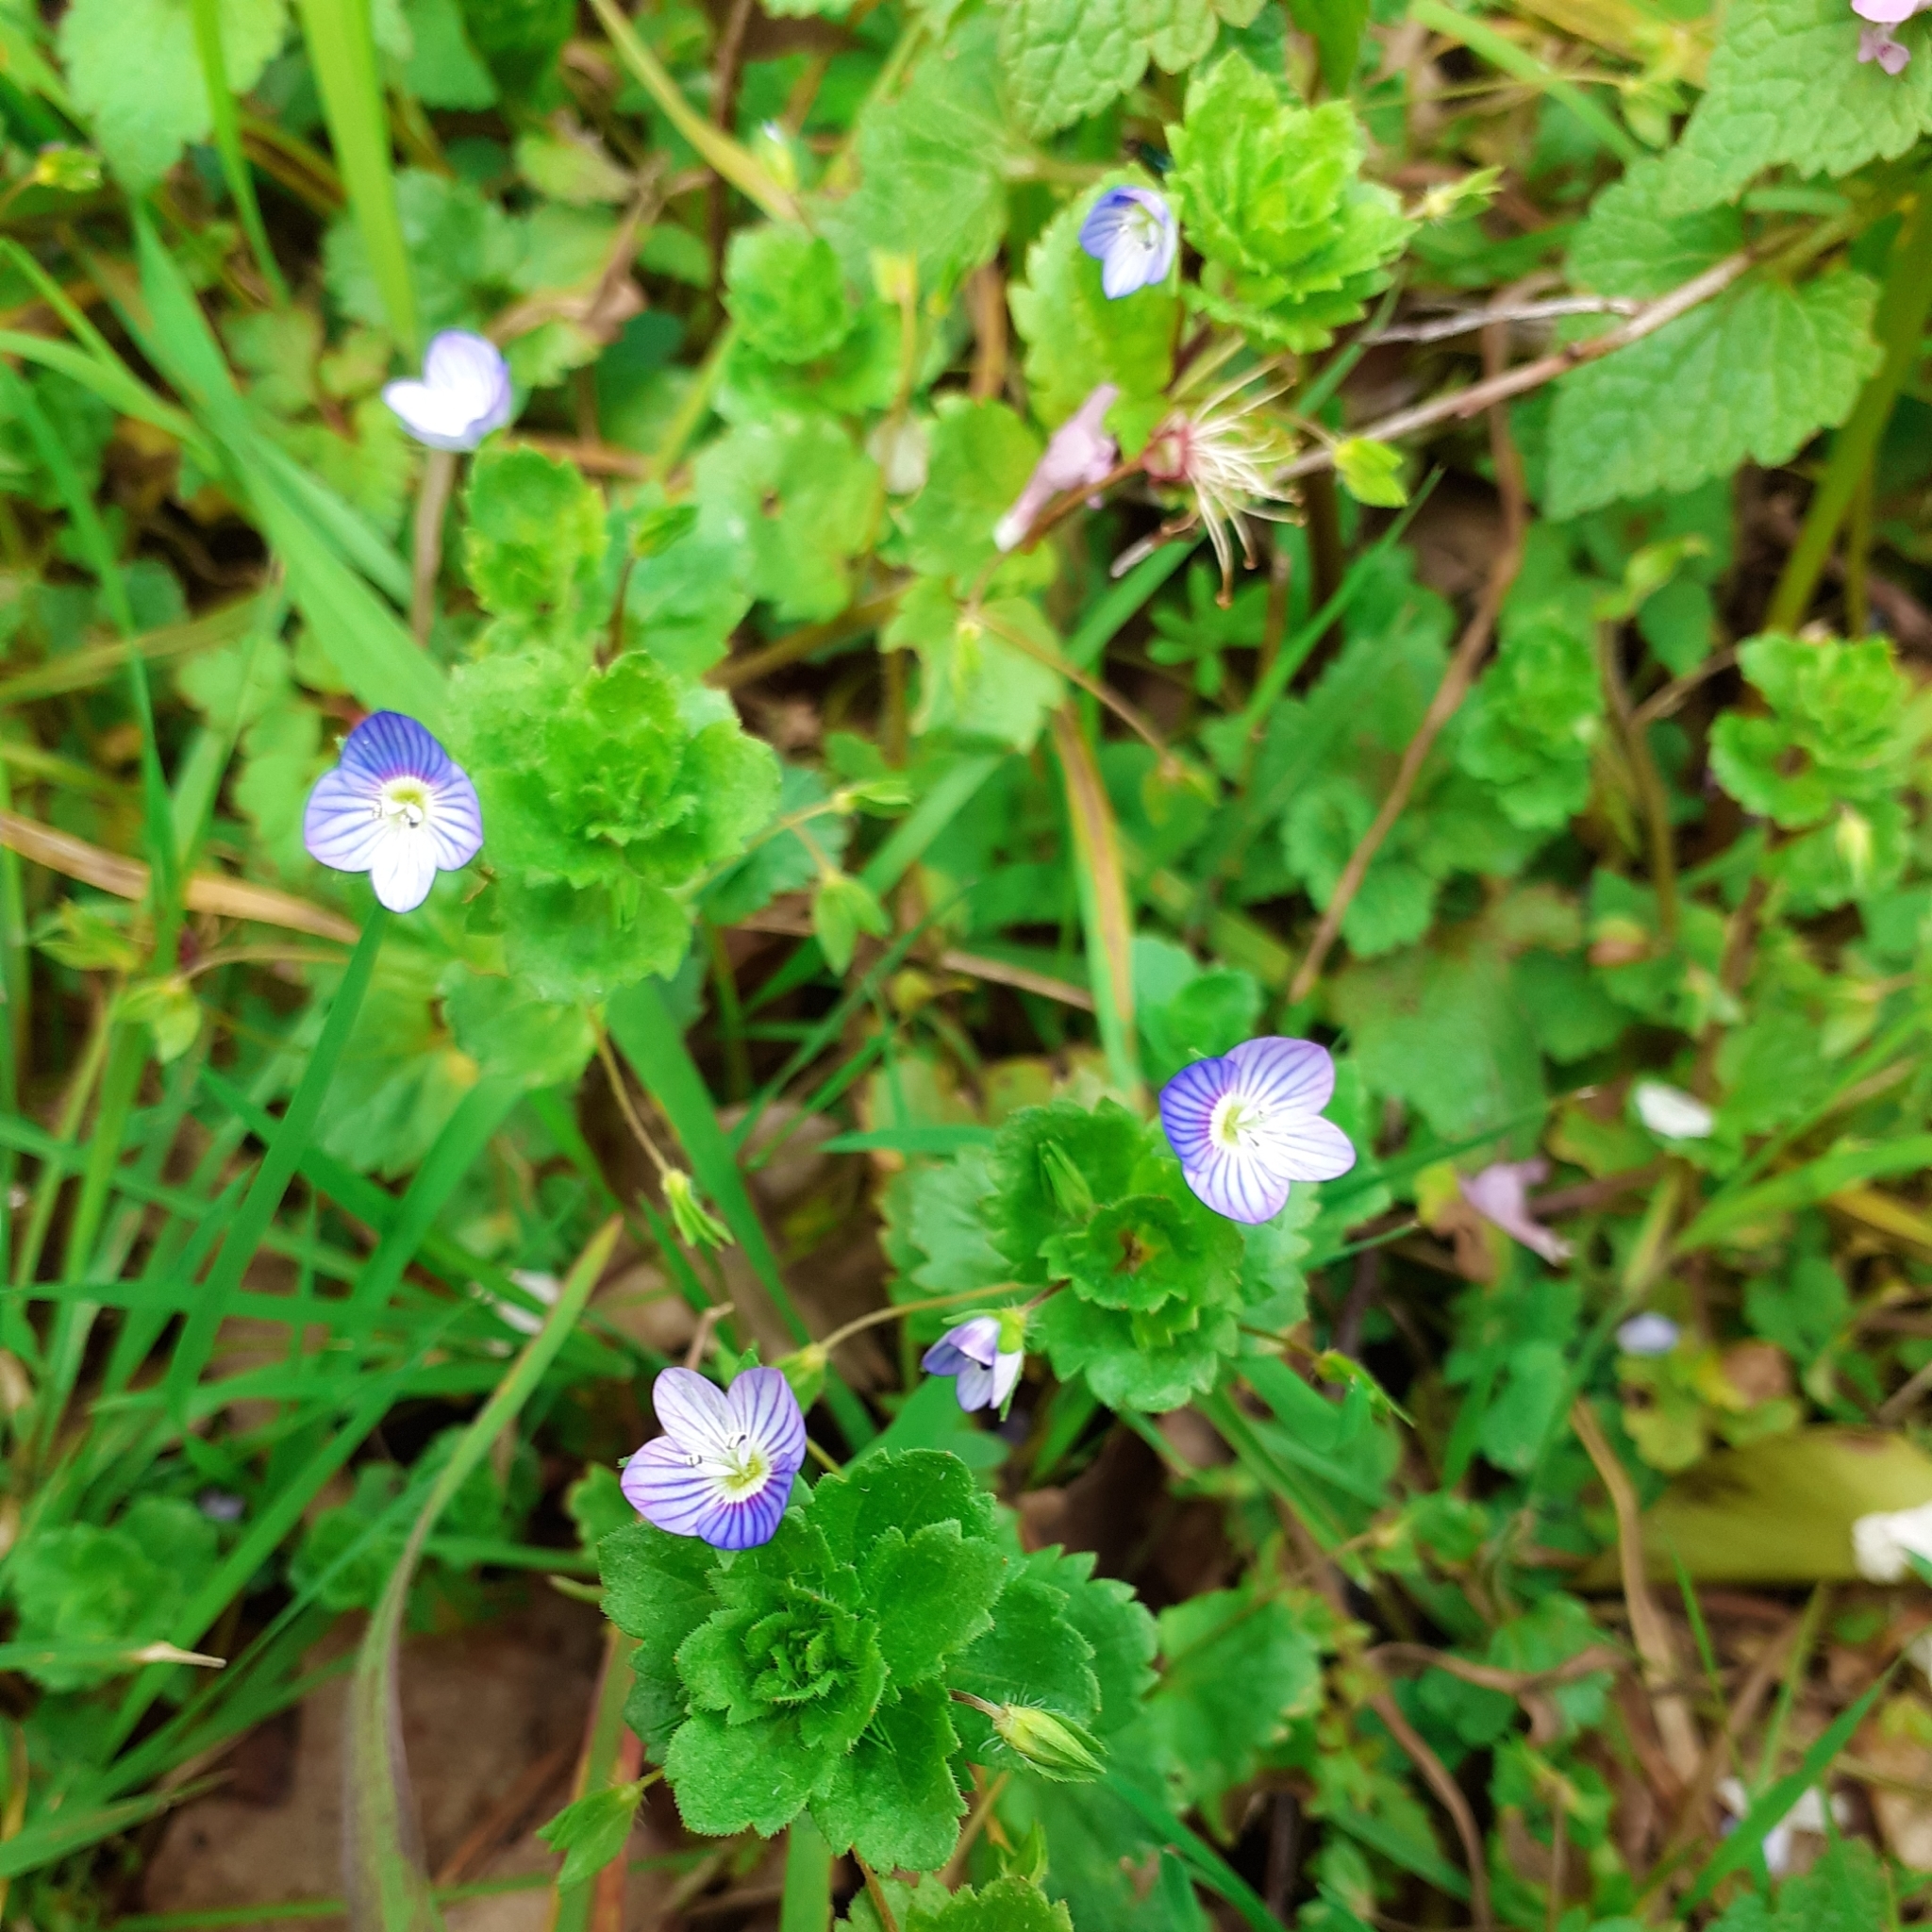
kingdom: Plantae
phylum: Tracheophyta
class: Magnoliopsida
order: Lamiales
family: Plantaginaceae
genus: Veronica
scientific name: Veronica persica
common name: Common field-speedwell
